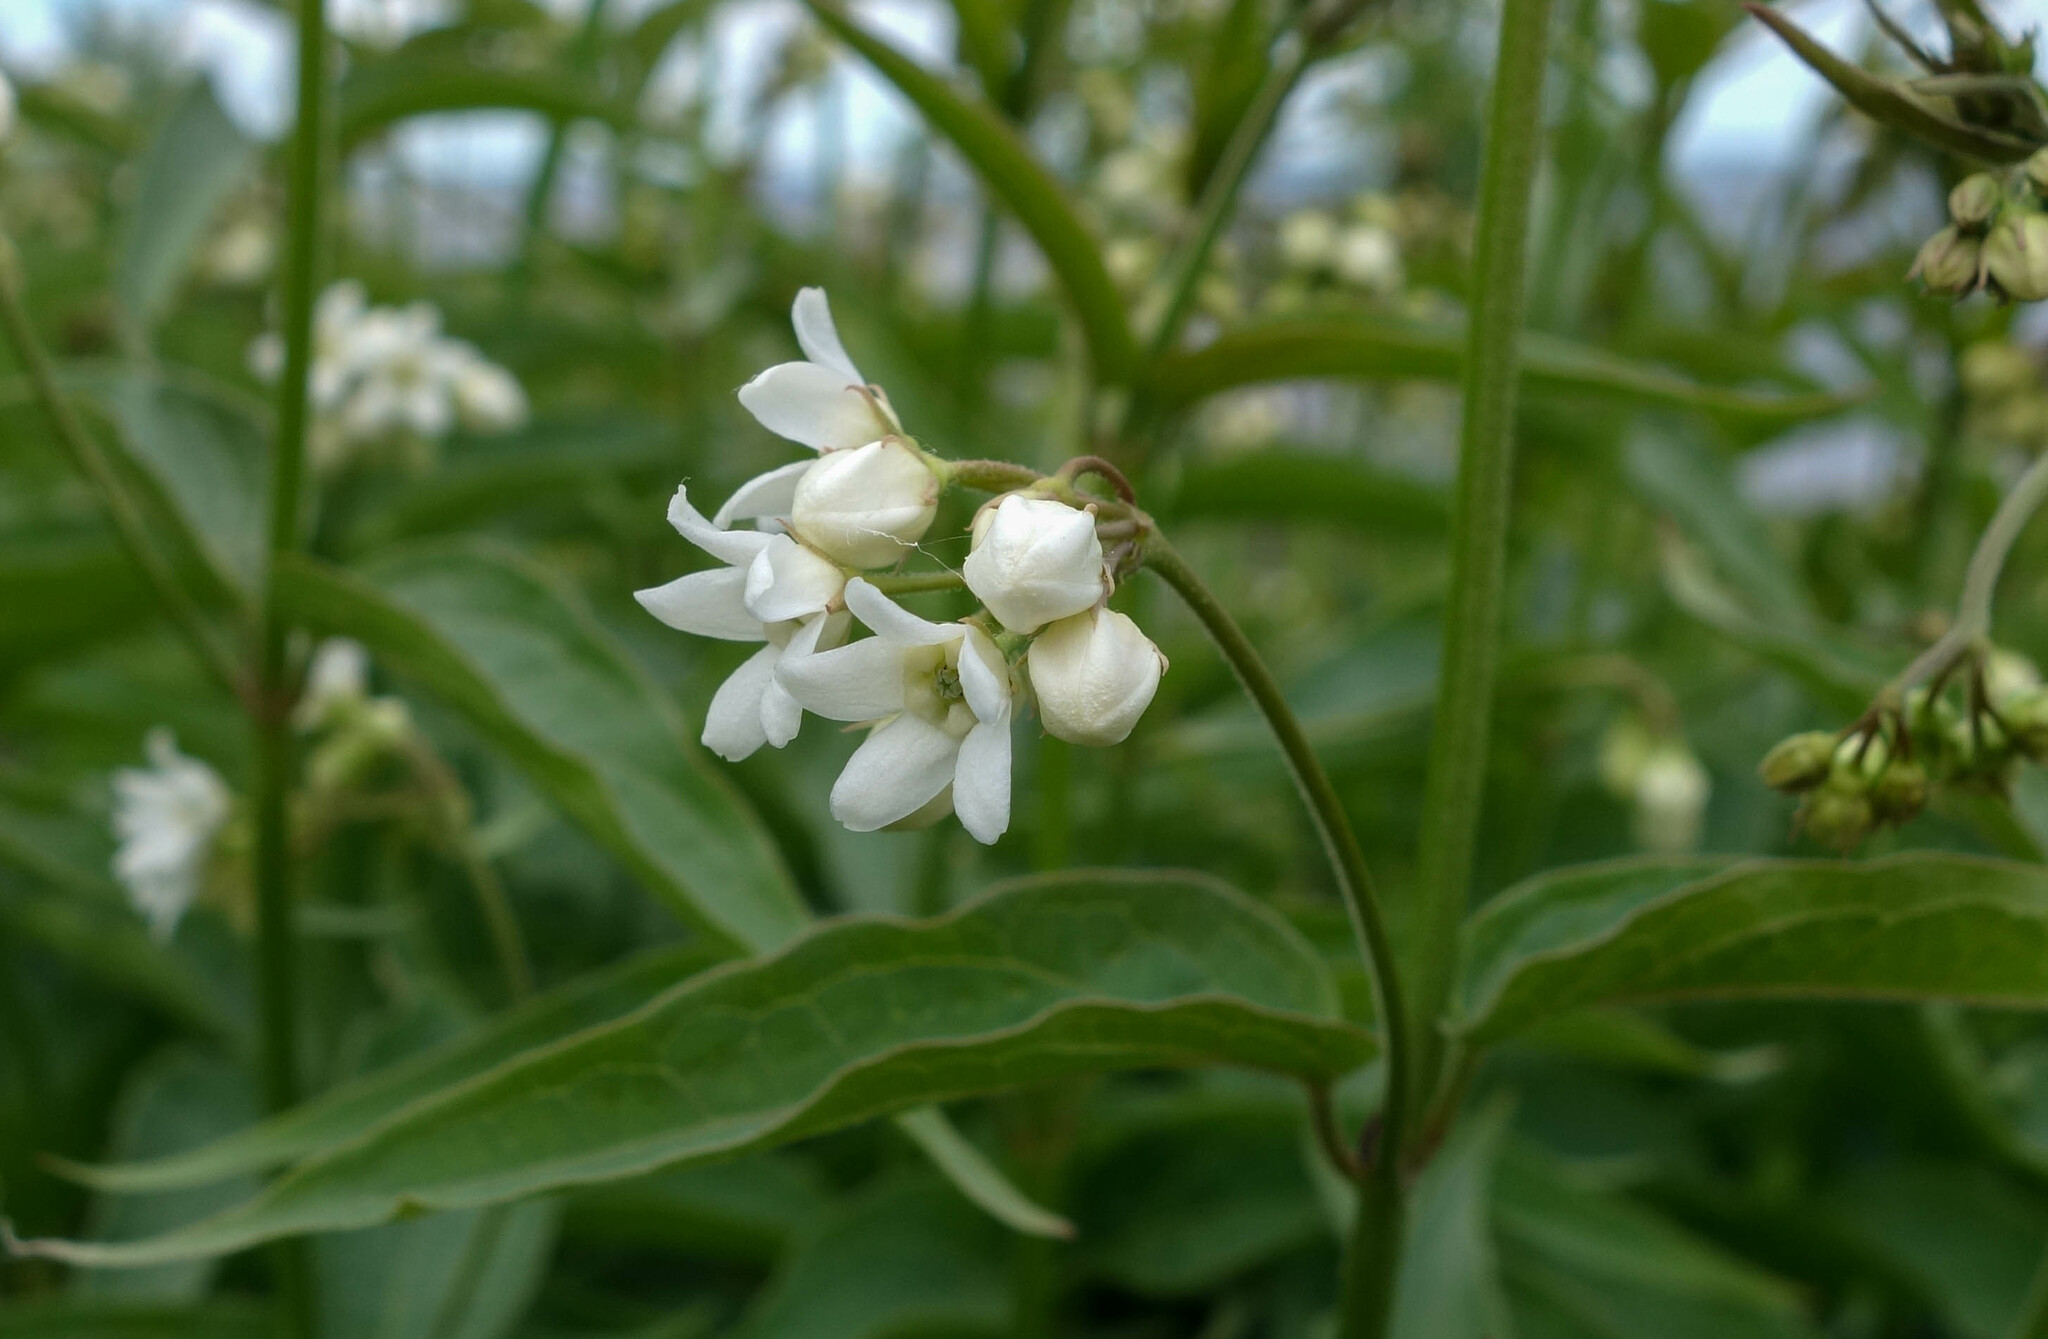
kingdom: Plantae
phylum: Tracheophyta
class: Magnoliopsida
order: Gentianales
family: Apocynaceae
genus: Vincetoxicum
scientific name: Vincetoxicum hirundinaria
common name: White swallowwort
